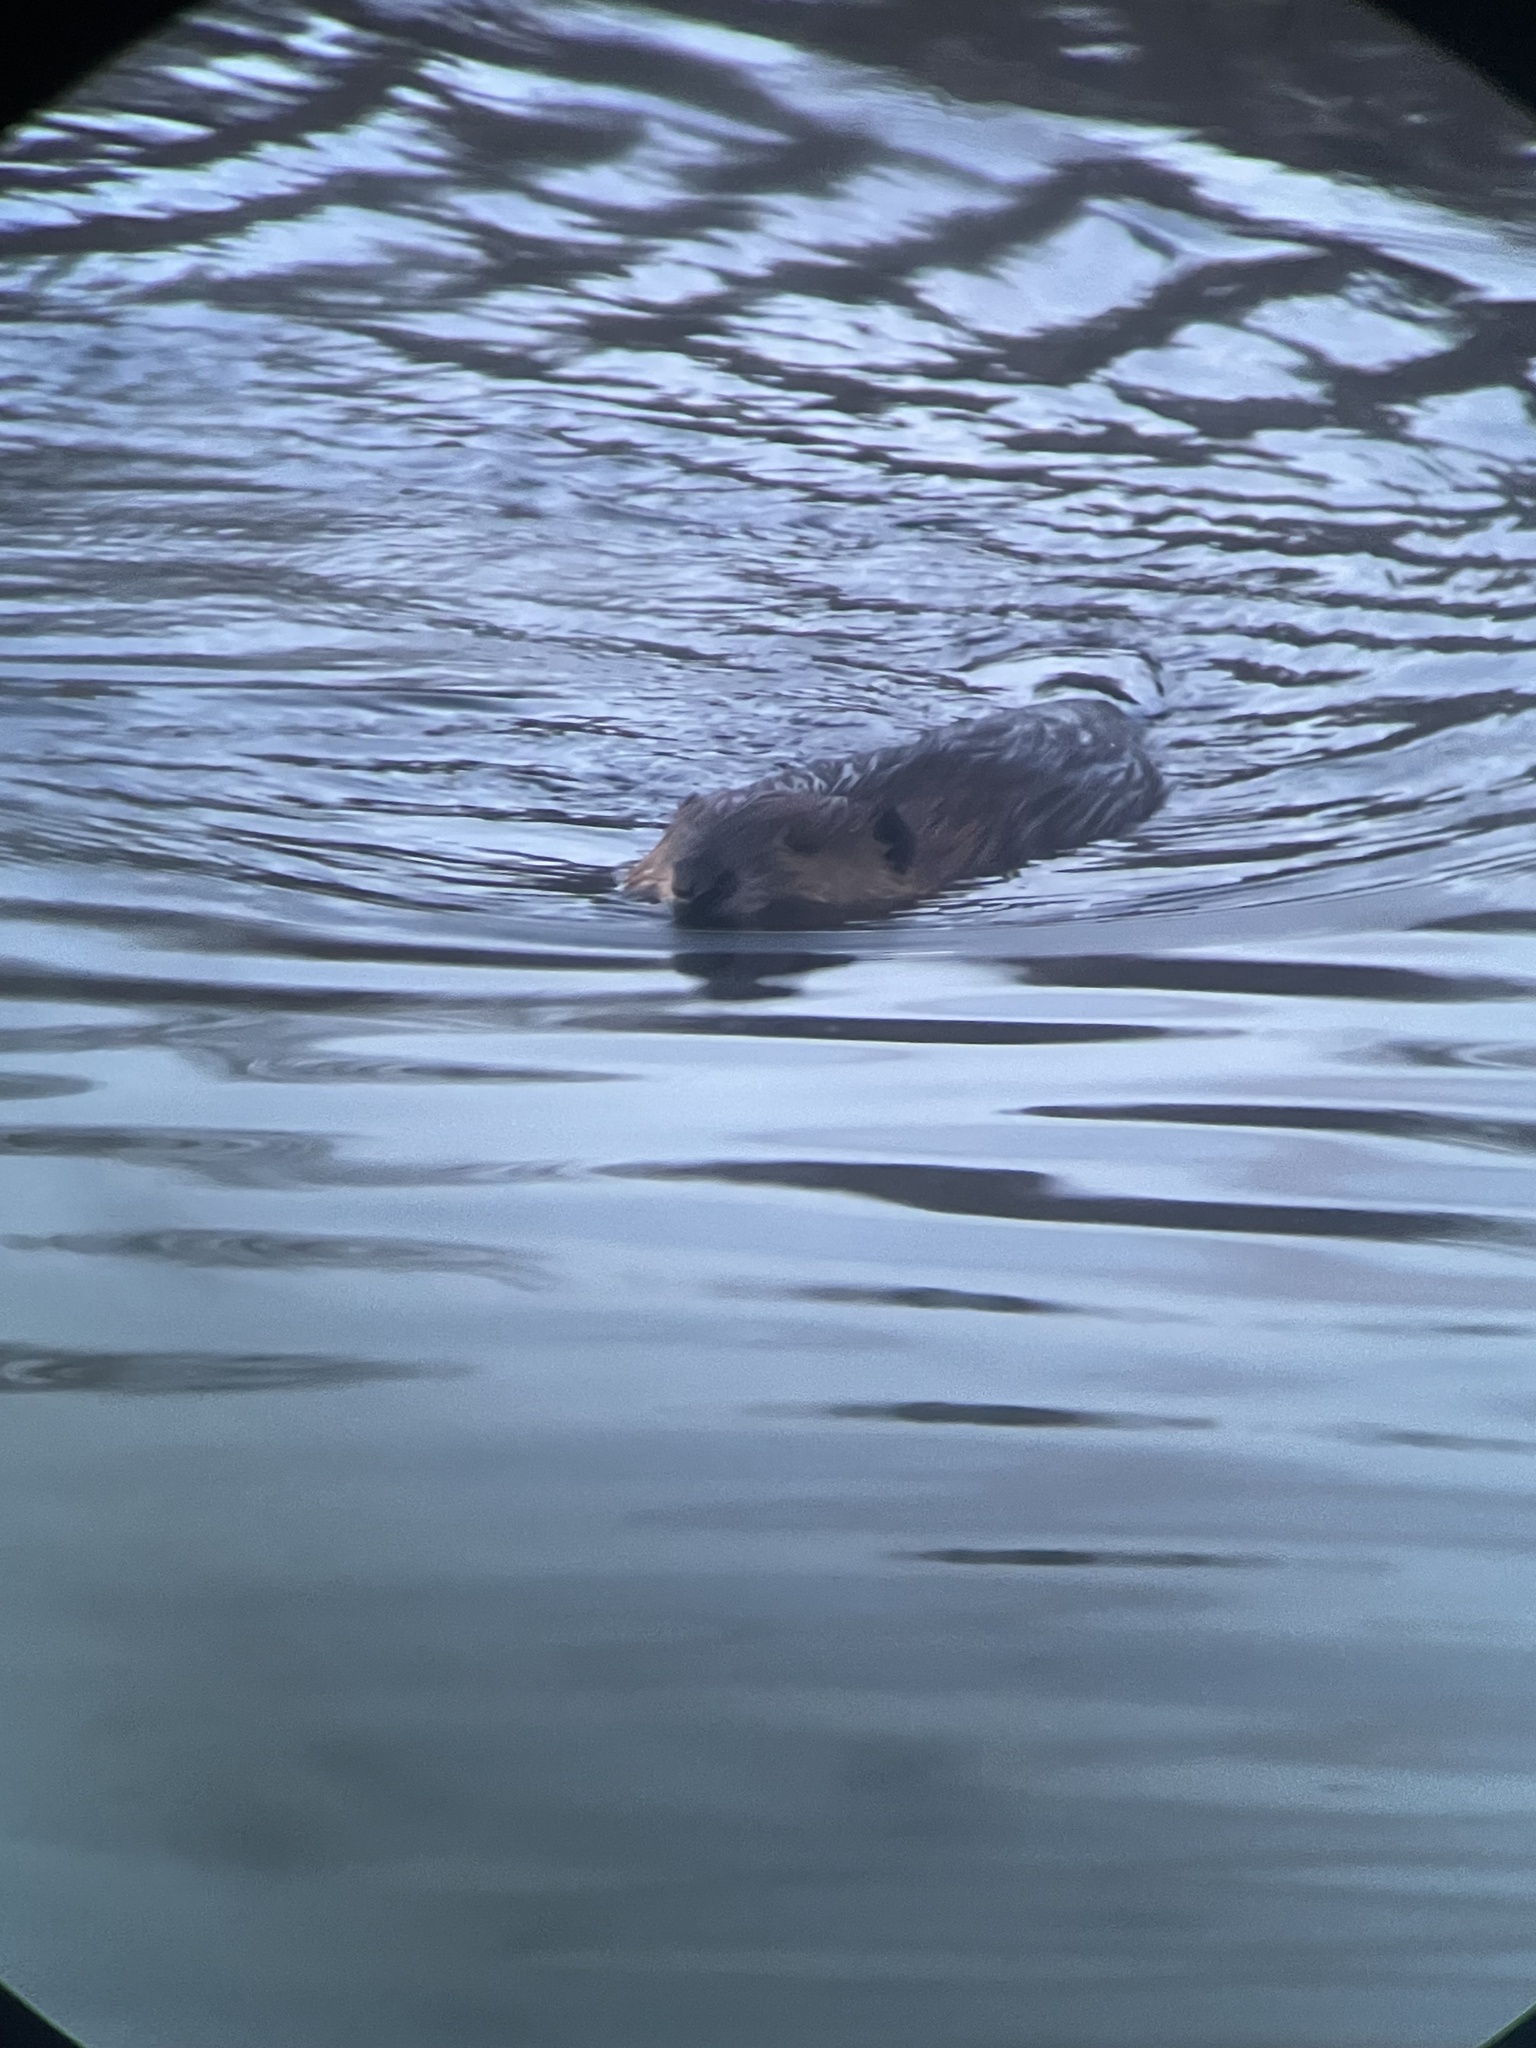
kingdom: Animalia
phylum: Chordata
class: Mammalia
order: Rodentia
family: Castoridae
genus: Castor
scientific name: Castor canadensis
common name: American beaver
